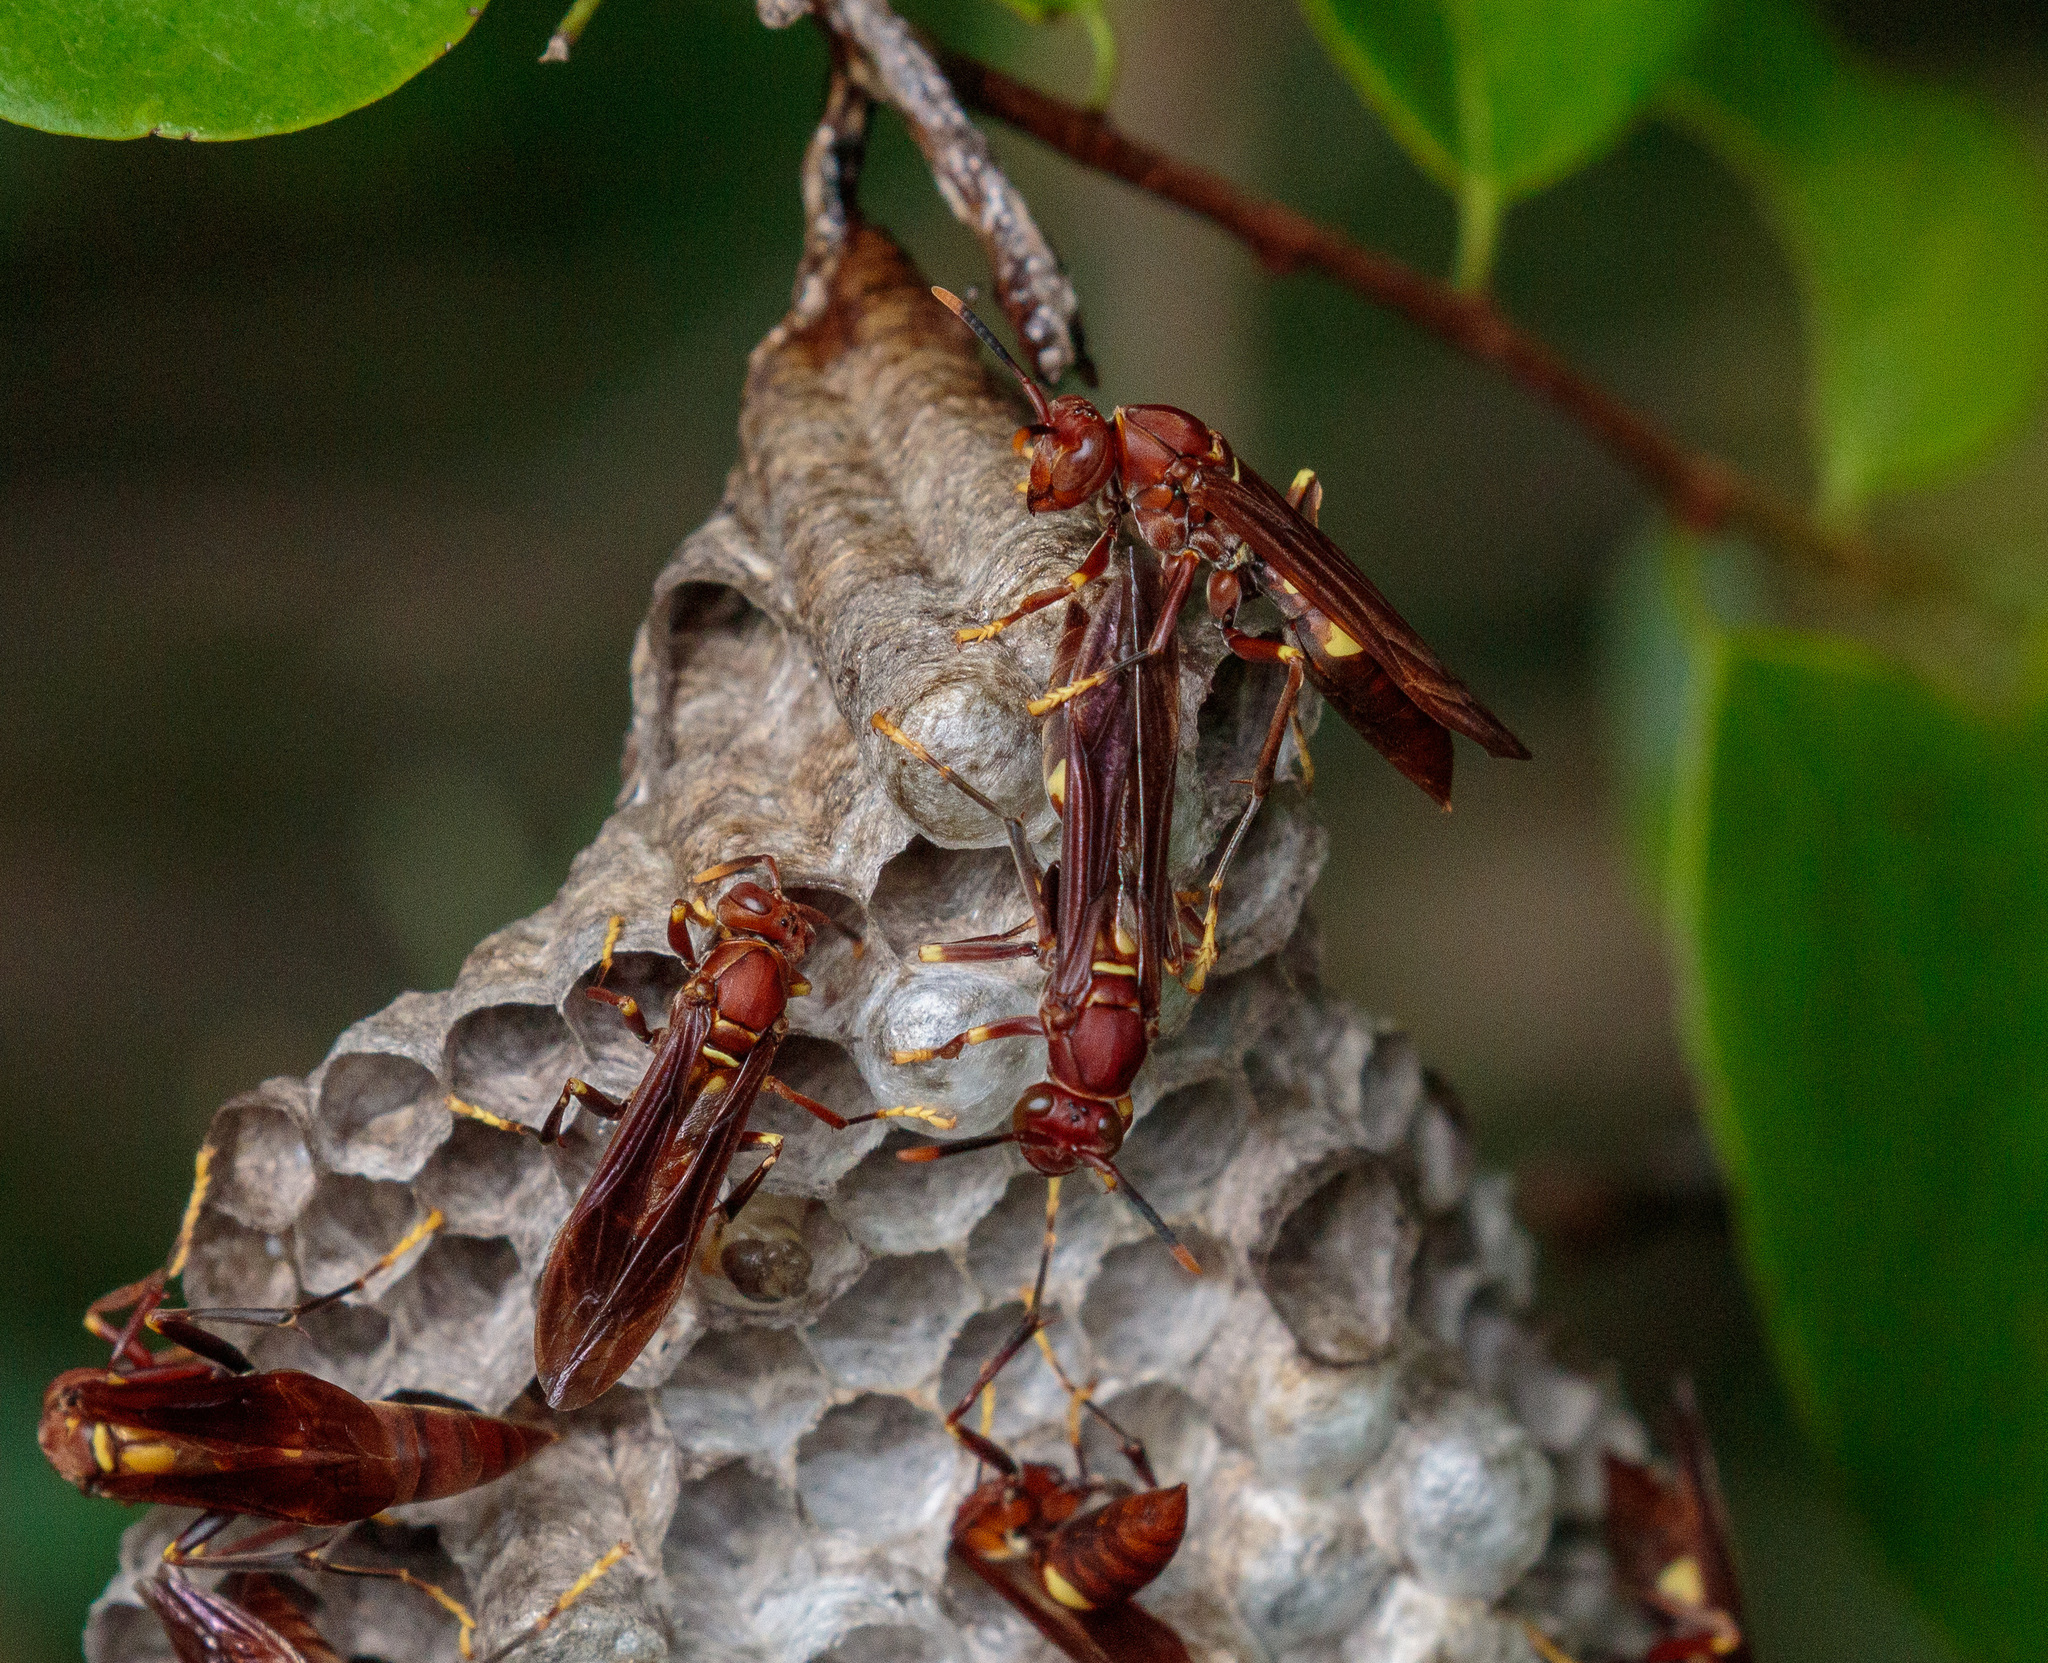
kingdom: Animalia
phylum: Arthropoda
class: Insecta
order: Hymenoptera
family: Eumenidae
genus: Polistes
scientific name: Polistes simillimus
